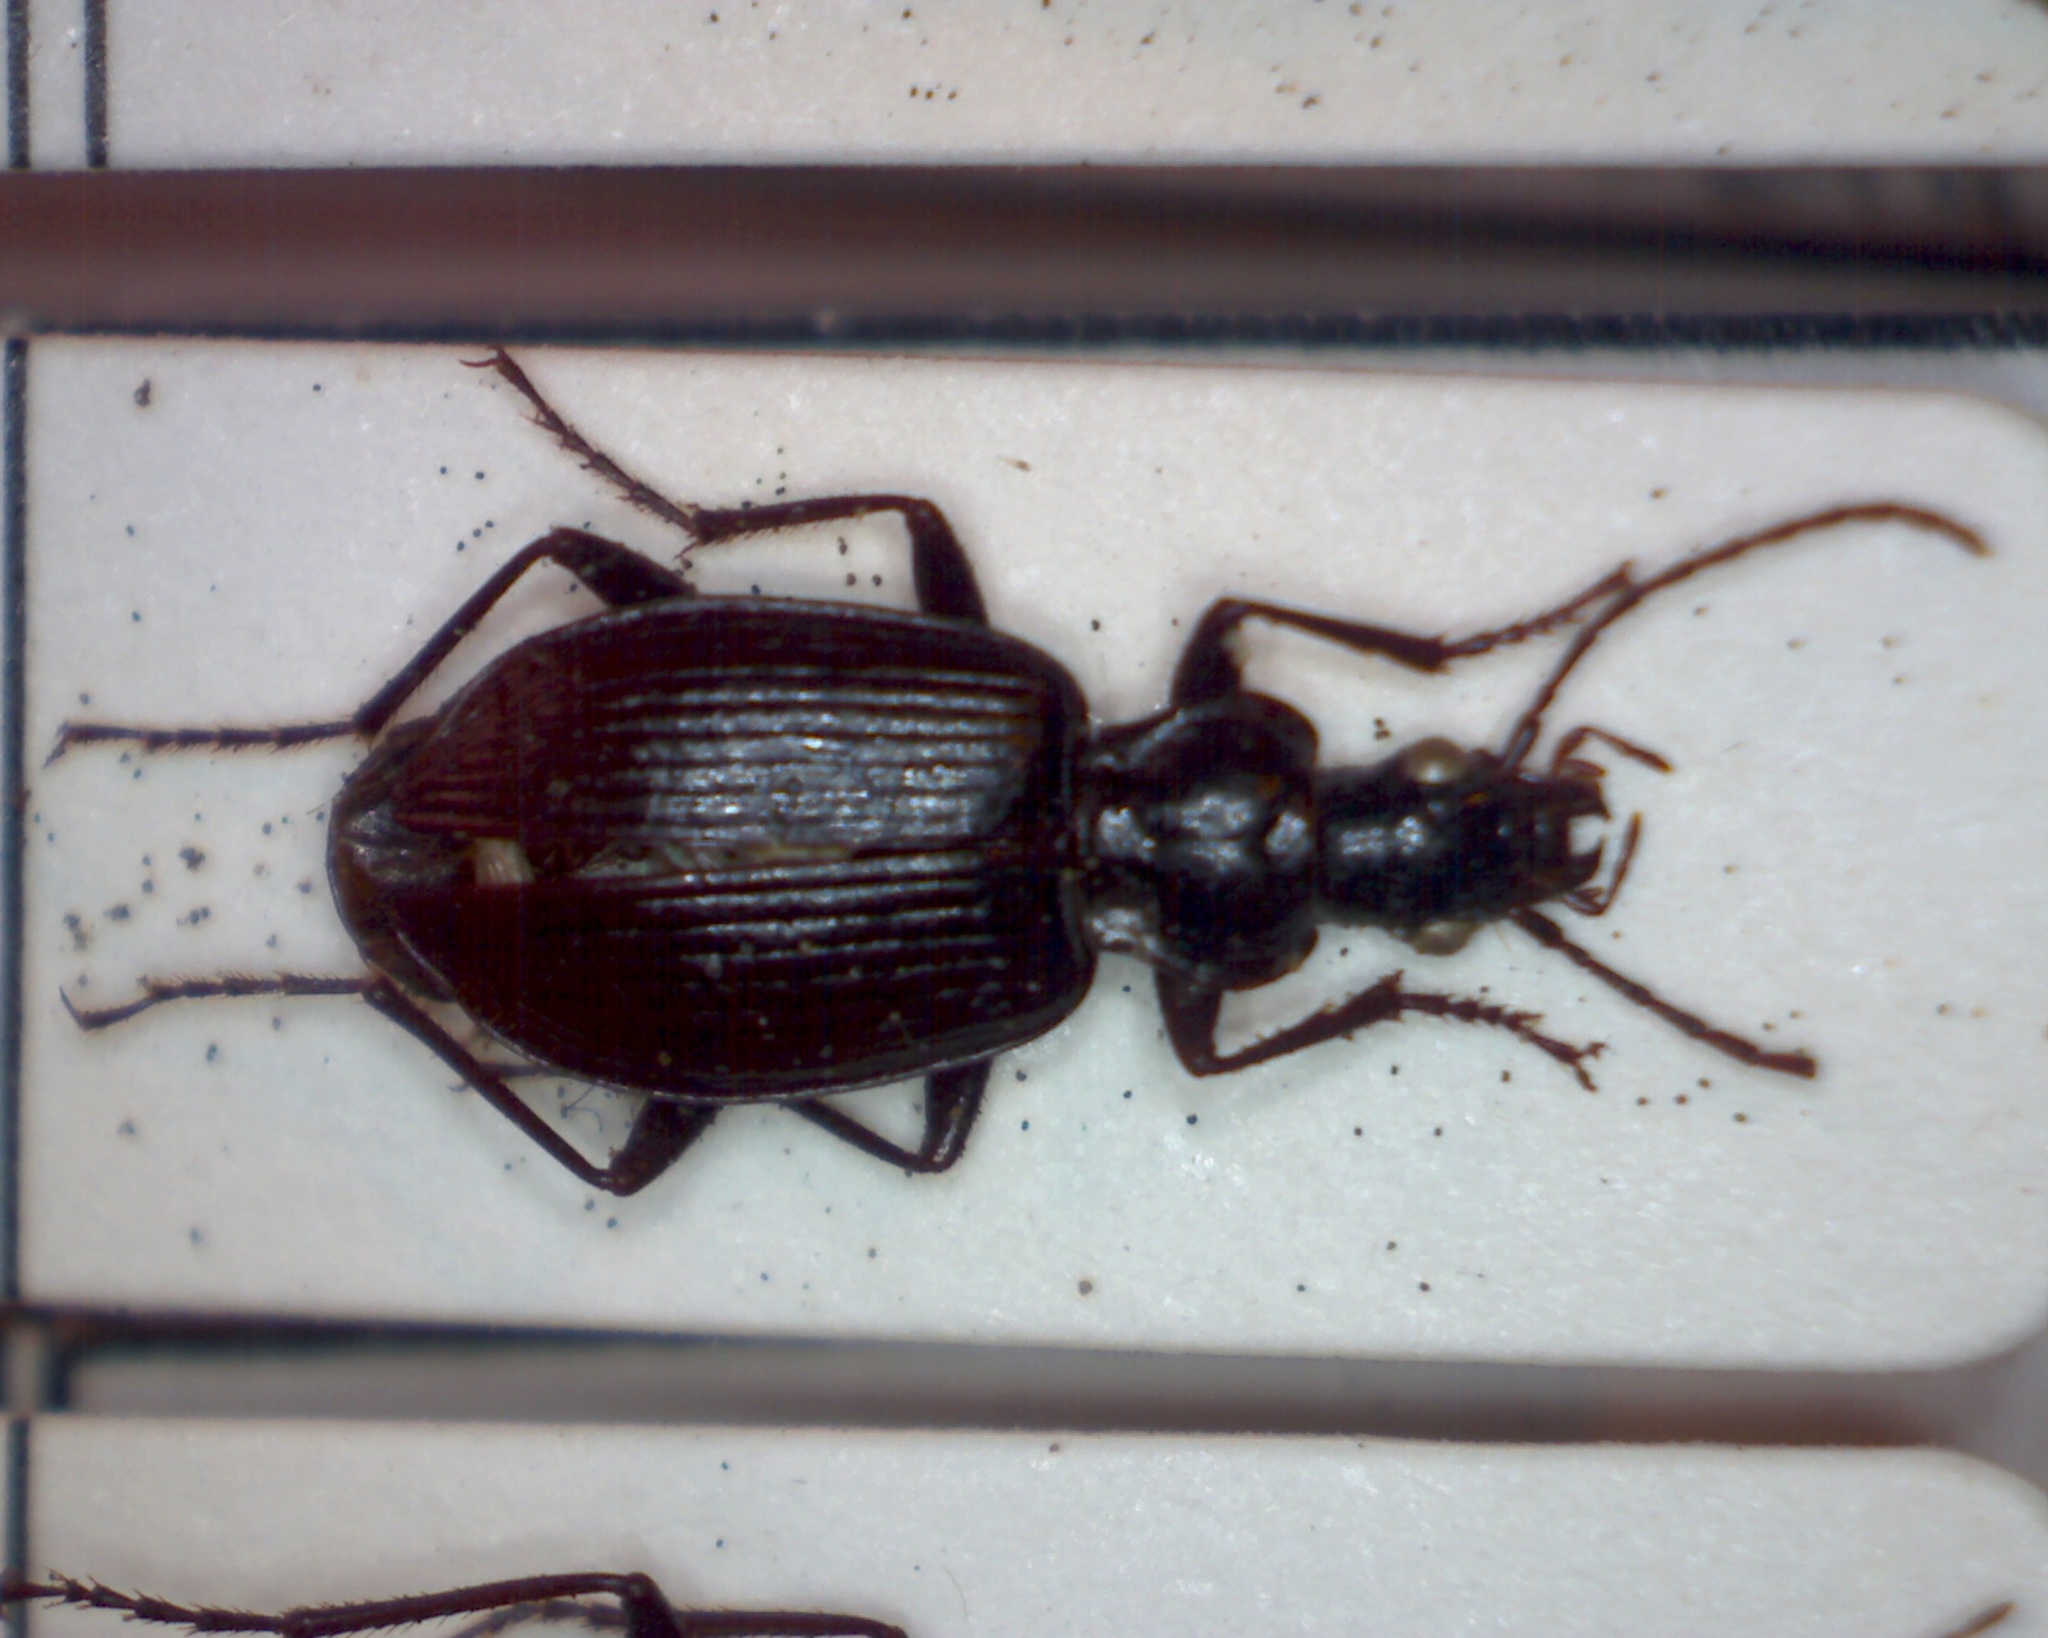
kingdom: Animalia
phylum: Arthropoda
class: Insecta
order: Coleoptera
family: Carabidae
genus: Platynus
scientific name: Platynus assimilis
